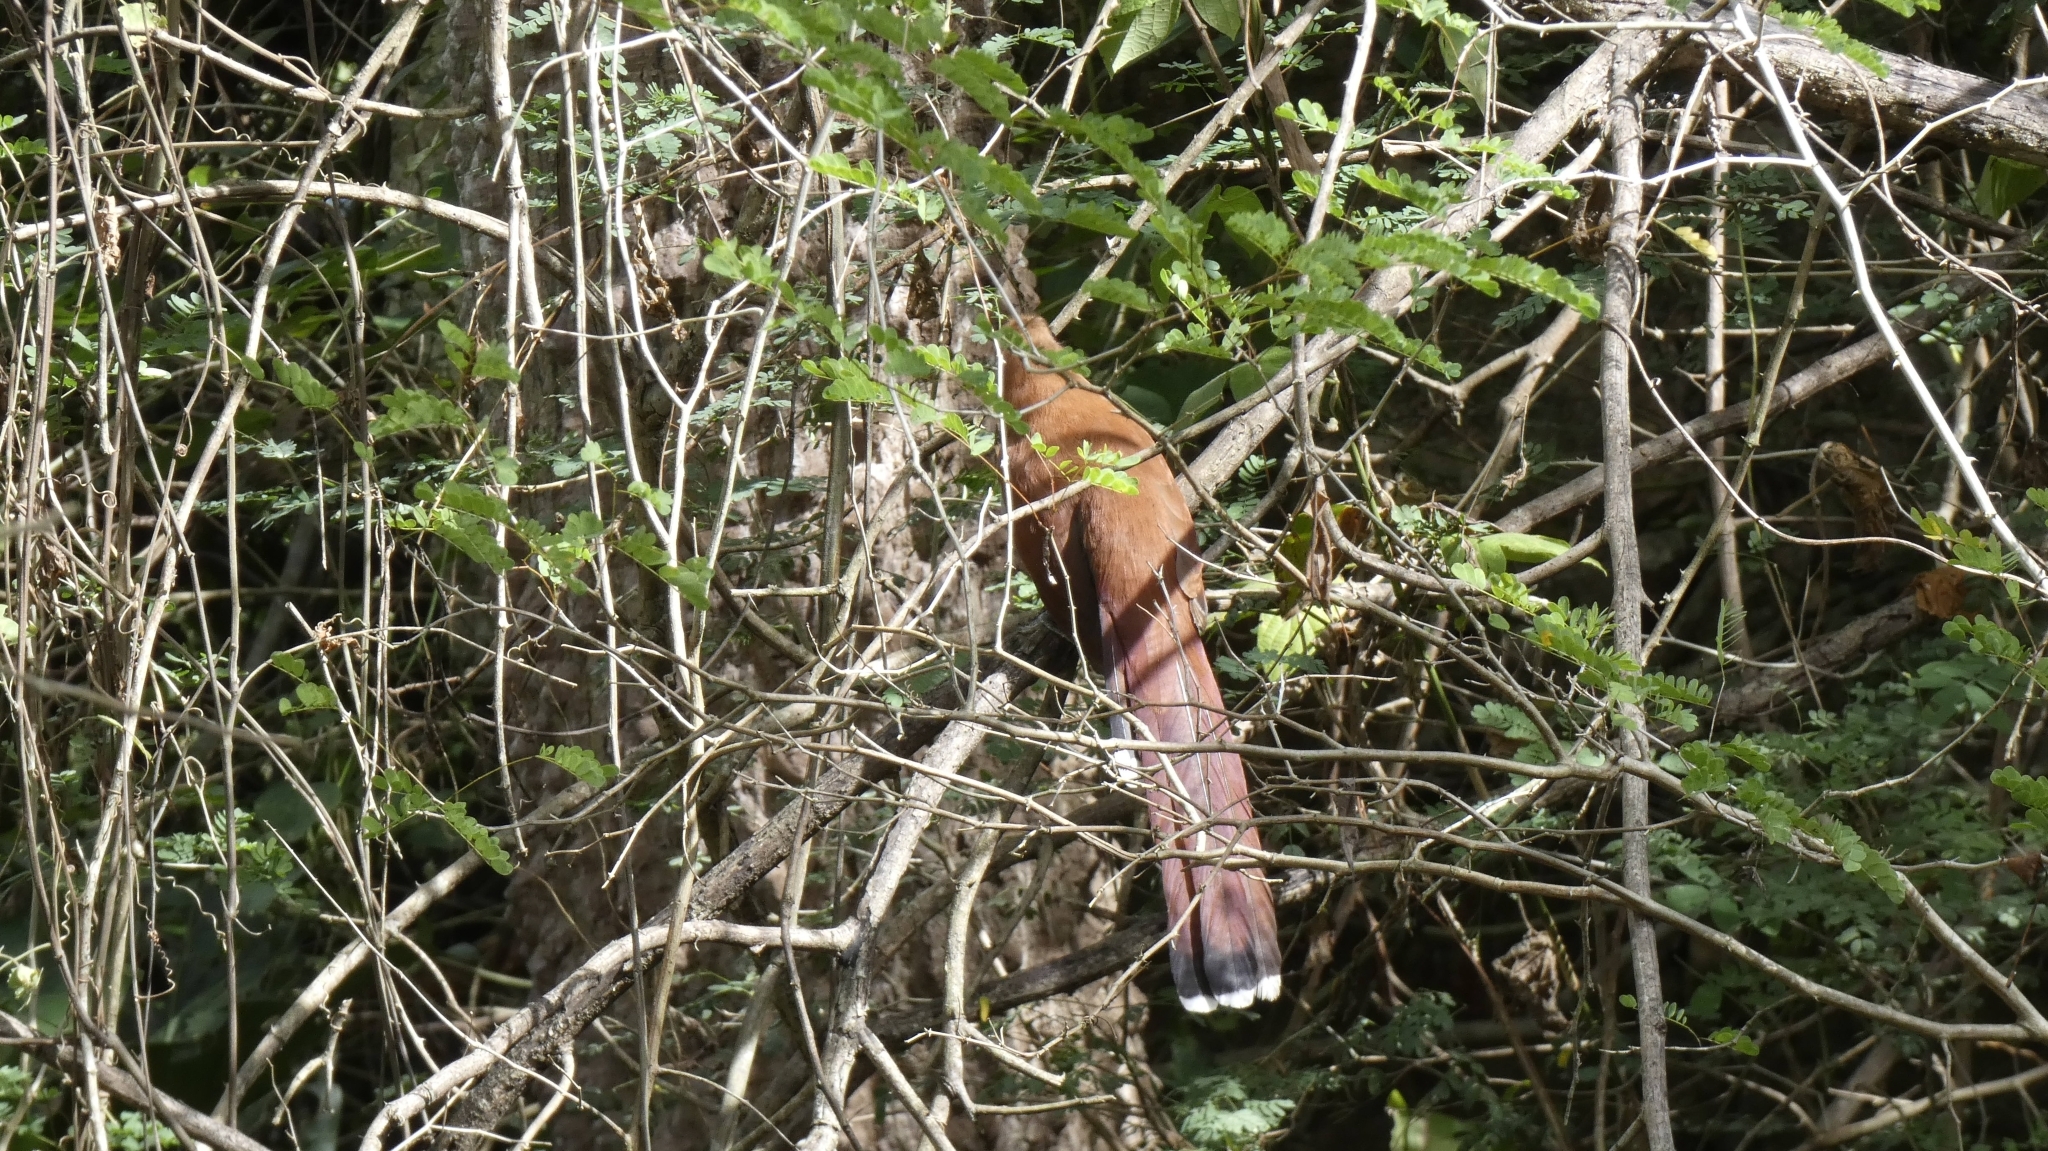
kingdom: Animalia
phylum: Chordata
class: Aves
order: Cuculiformes
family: Cuculidae
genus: Piaya
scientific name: Piaya cayana
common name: Squirrel cuckoo
